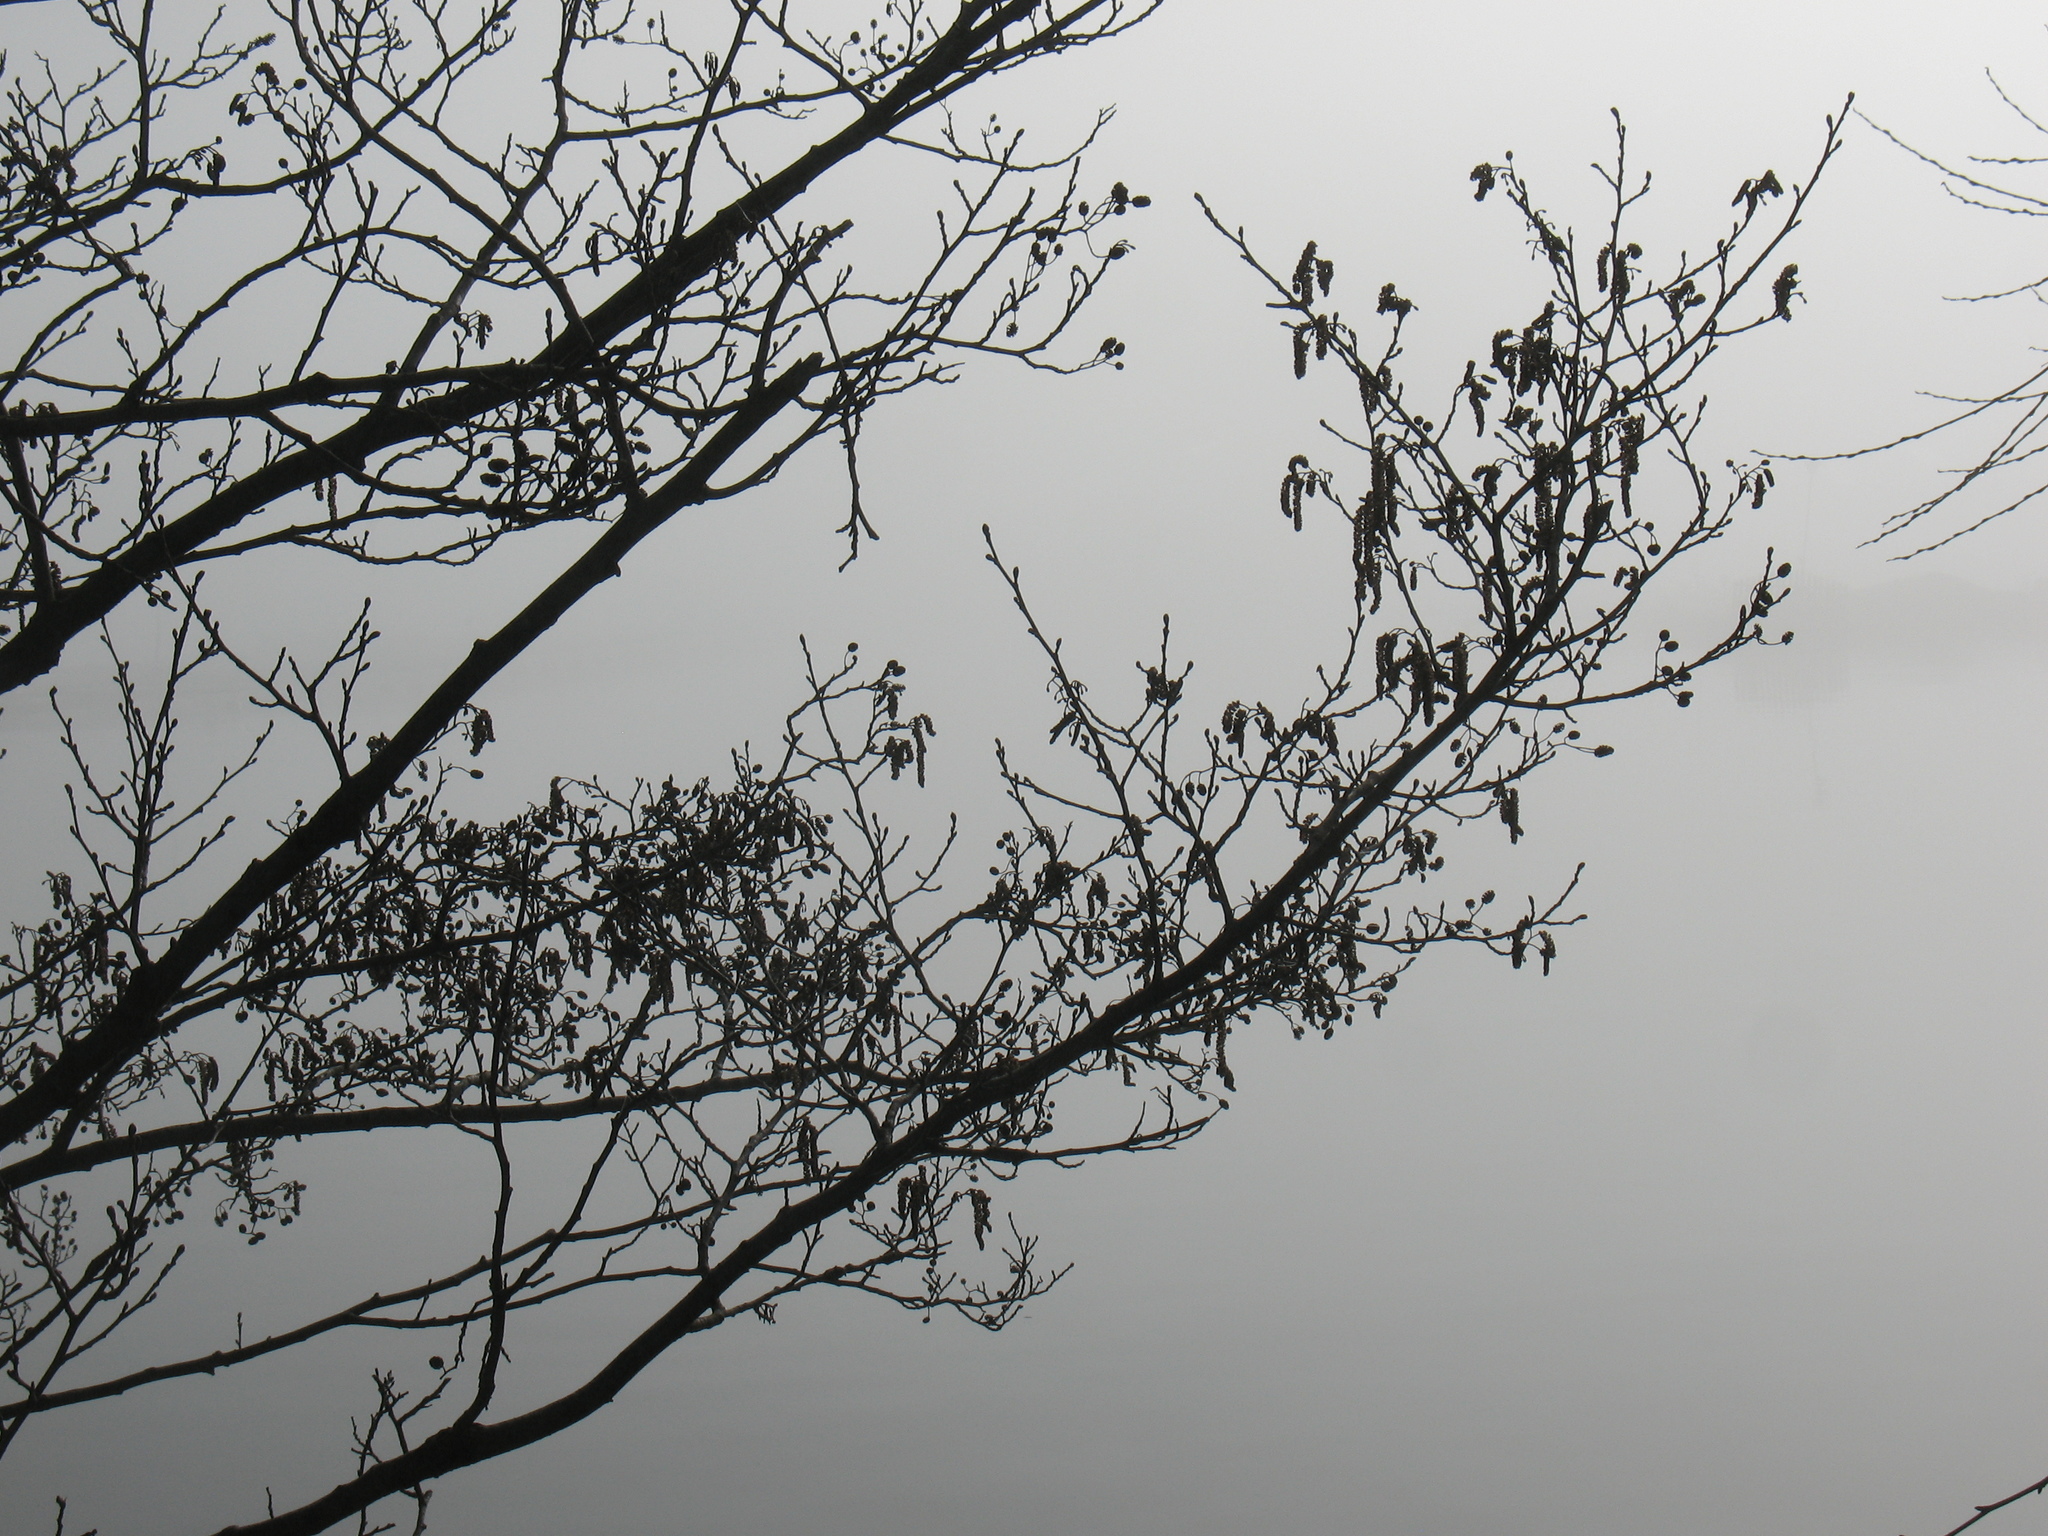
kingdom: Plantae
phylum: Tracheophyta
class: Magnoliopsida
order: Fagales
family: Betulaceae
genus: Alnus
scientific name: Alnus glutinosa
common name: Black alder
